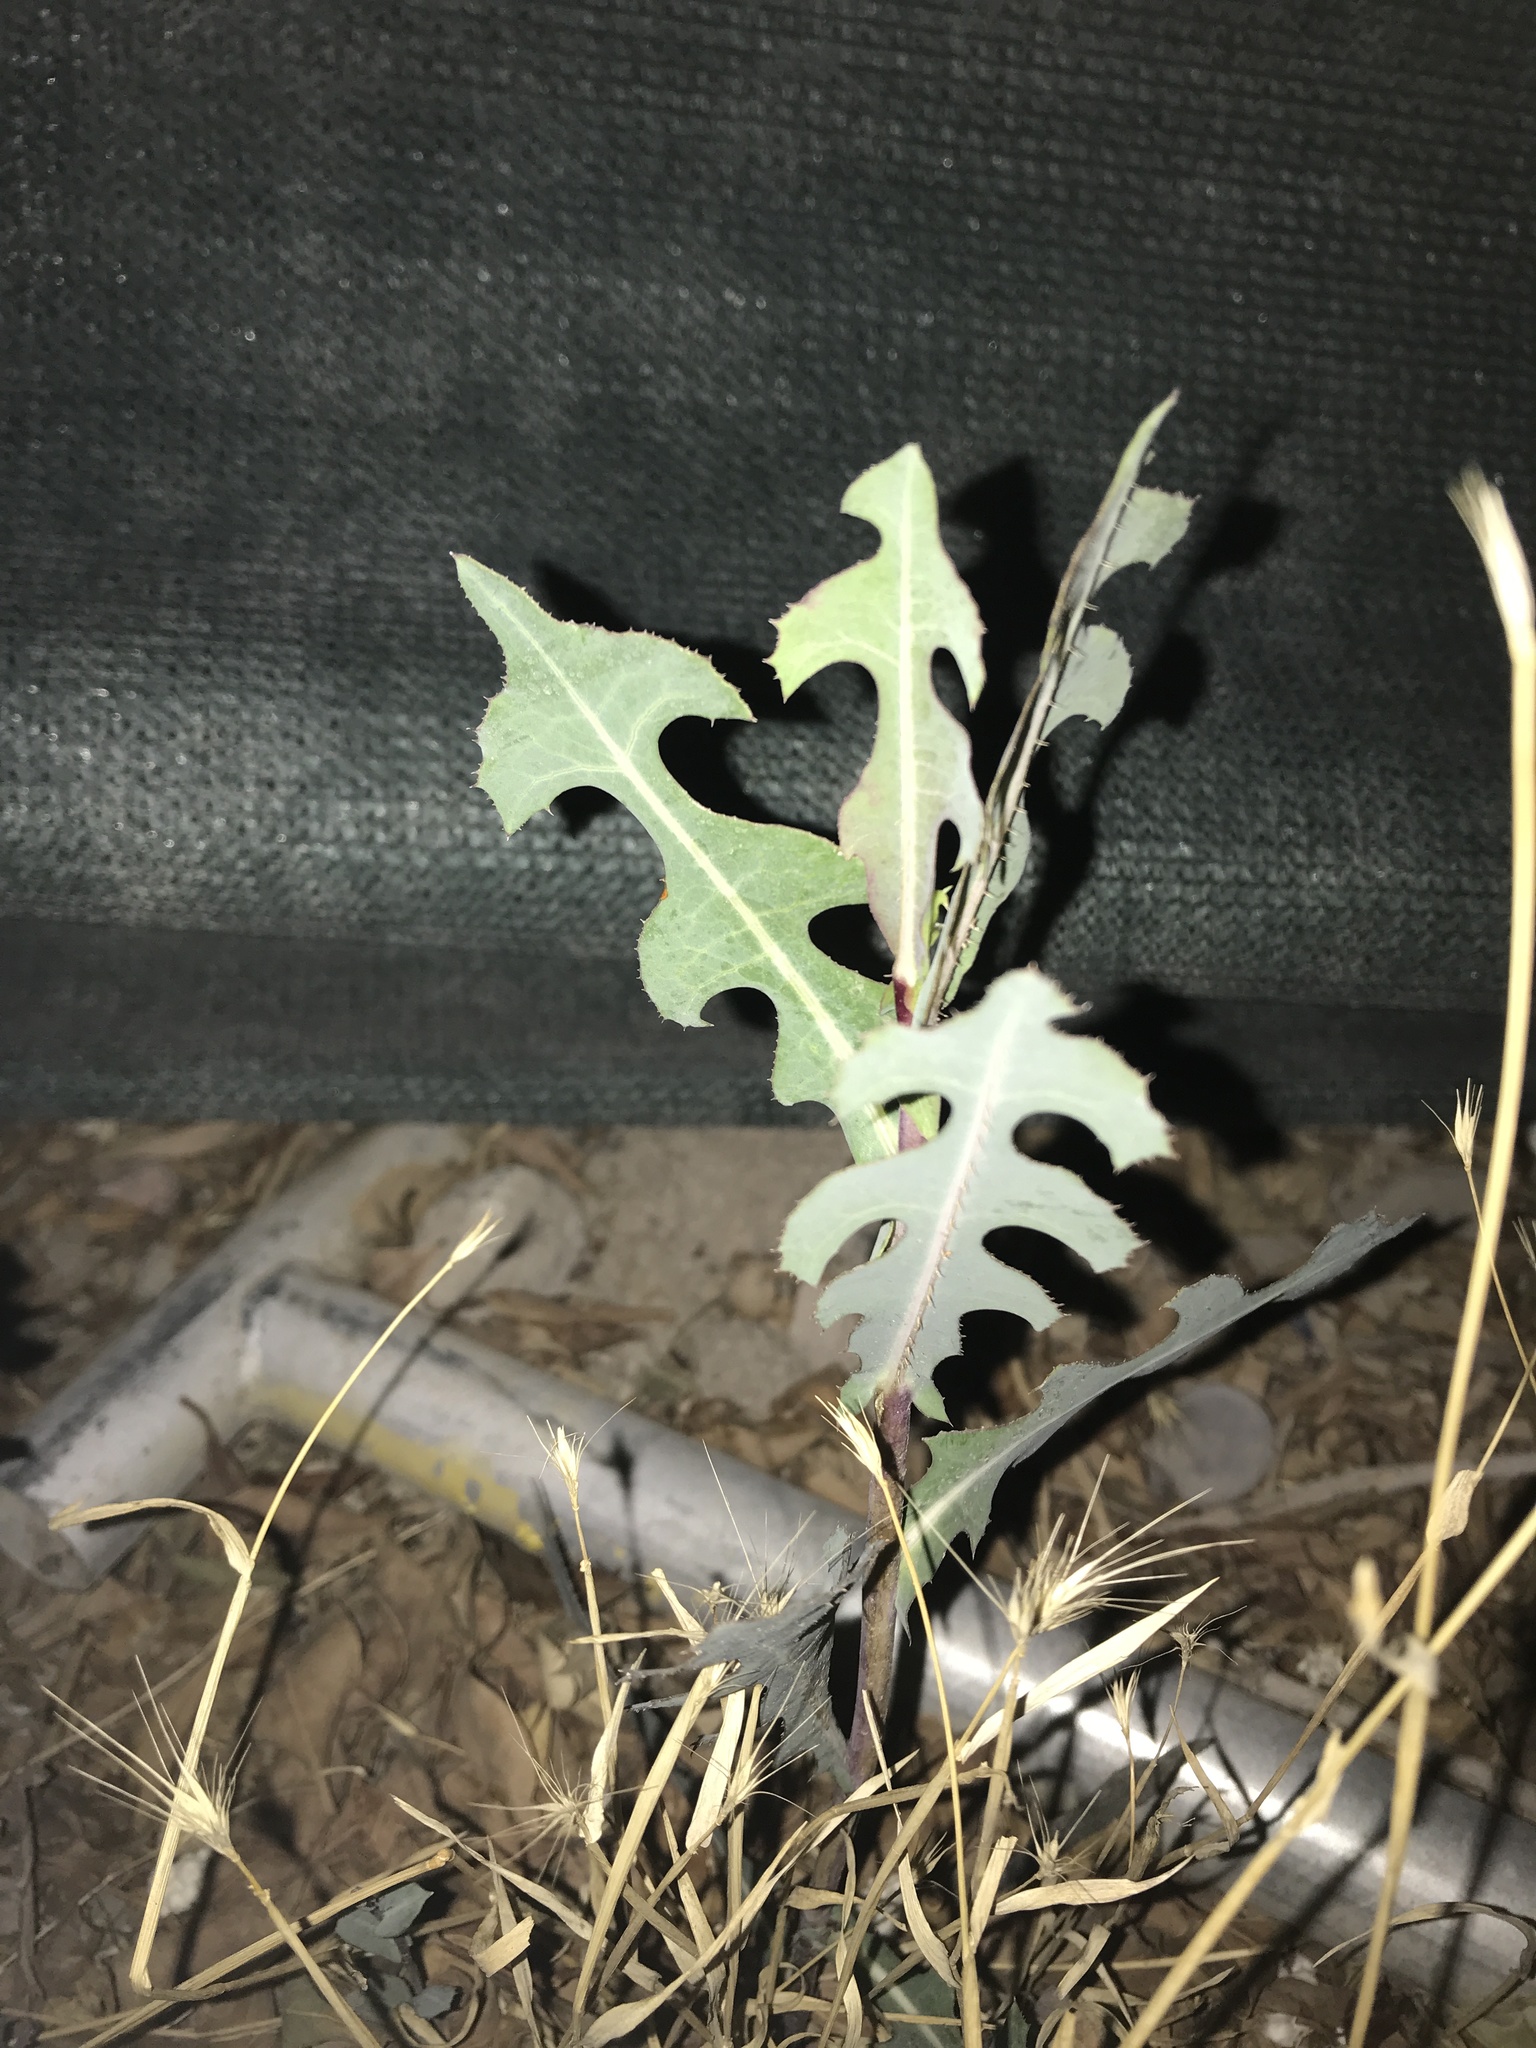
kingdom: Plantae
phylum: Tracheophyta
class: Magnoliopsida
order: Asterales
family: Asteraceae
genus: Lactuca
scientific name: Lactuca serriola
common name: Prickly lettuce
